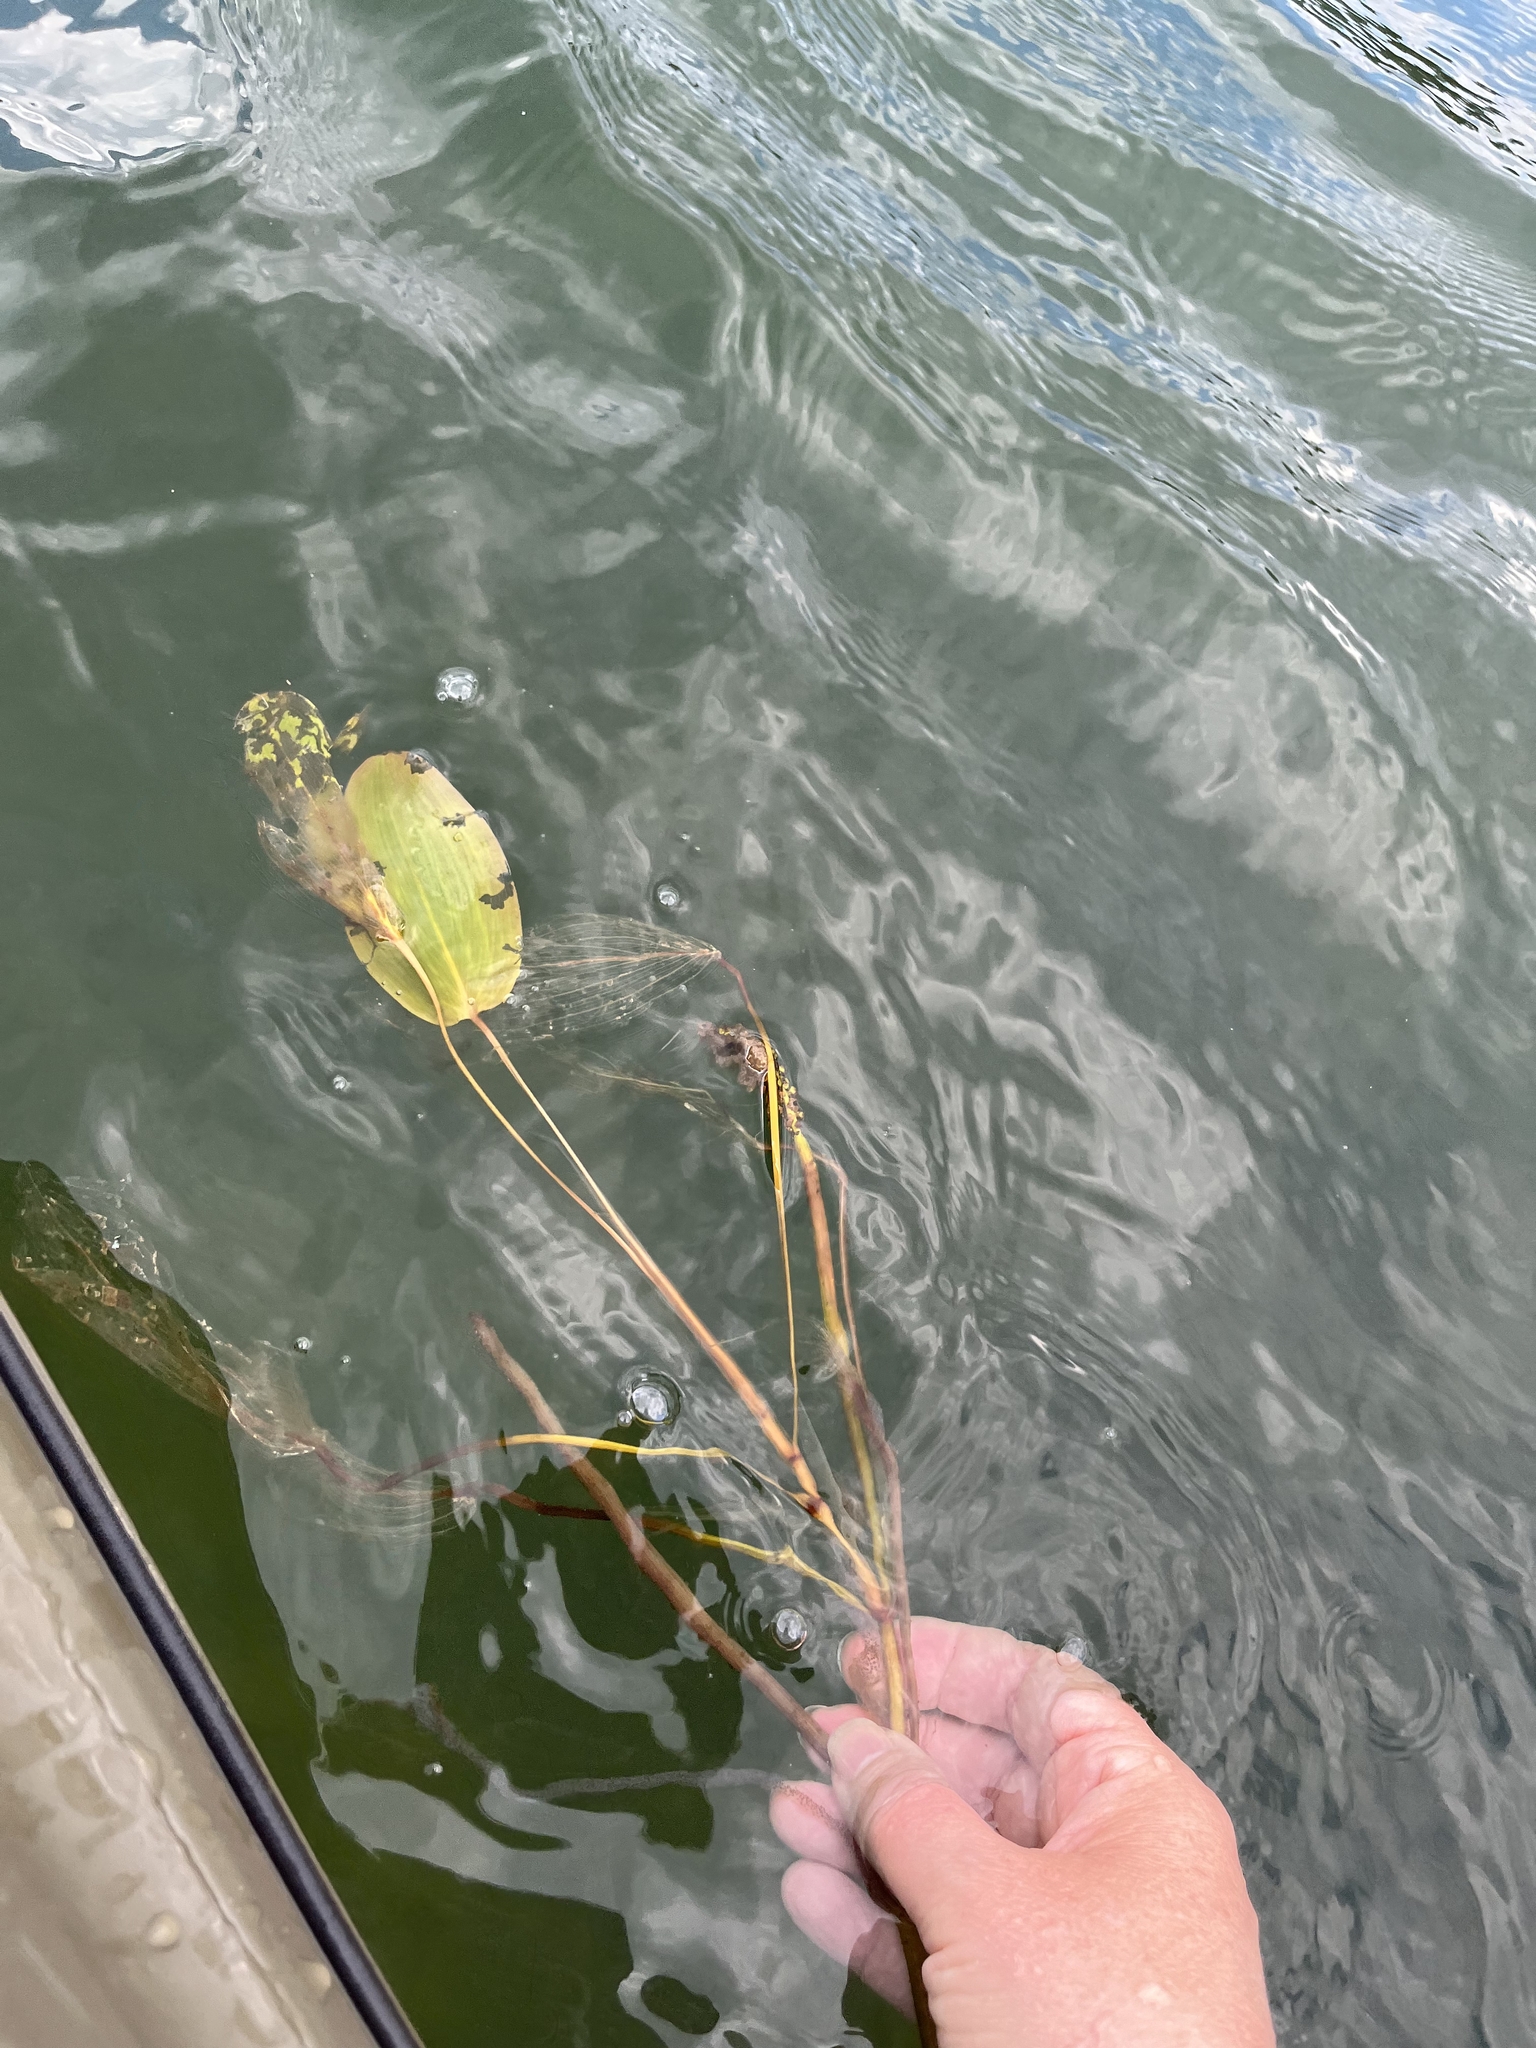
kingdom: Plantae
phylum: Tracheophyta
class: Liliopsida
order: Alismatales
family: Potamogetonaceae
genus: Potamogeton
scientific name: Potamogeton amplifolius
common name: Broad-leaved pondweed
